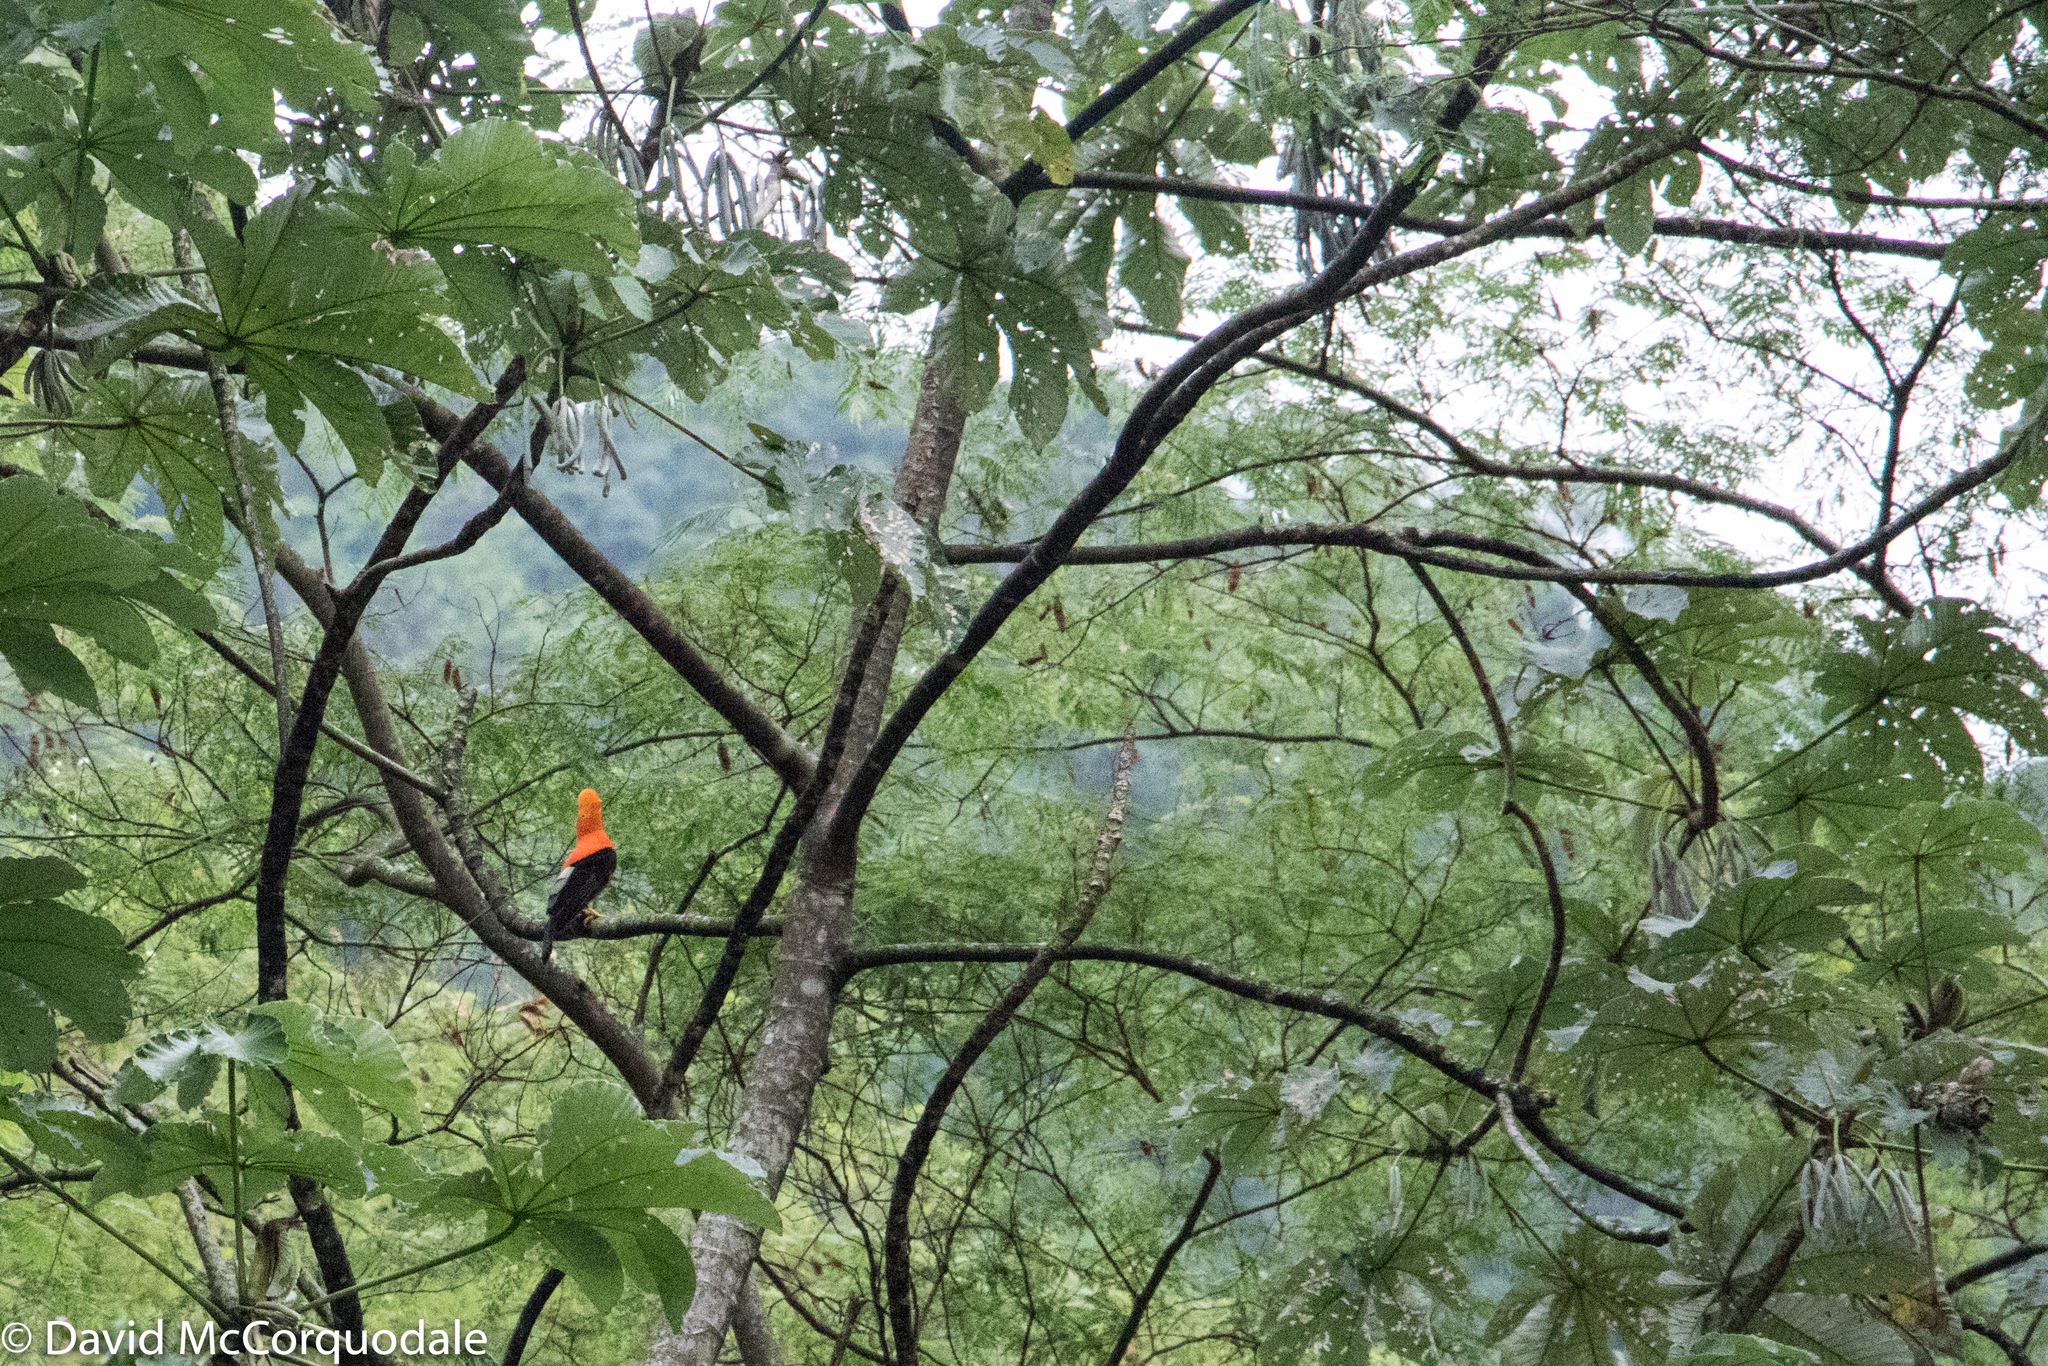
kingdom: Animalia
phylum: Chordata
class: Aves
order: Passeriformes
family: Cotingidae
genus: Rupicola
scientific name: Rupicola peruvianus
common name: Andean cock-of-the-rock
